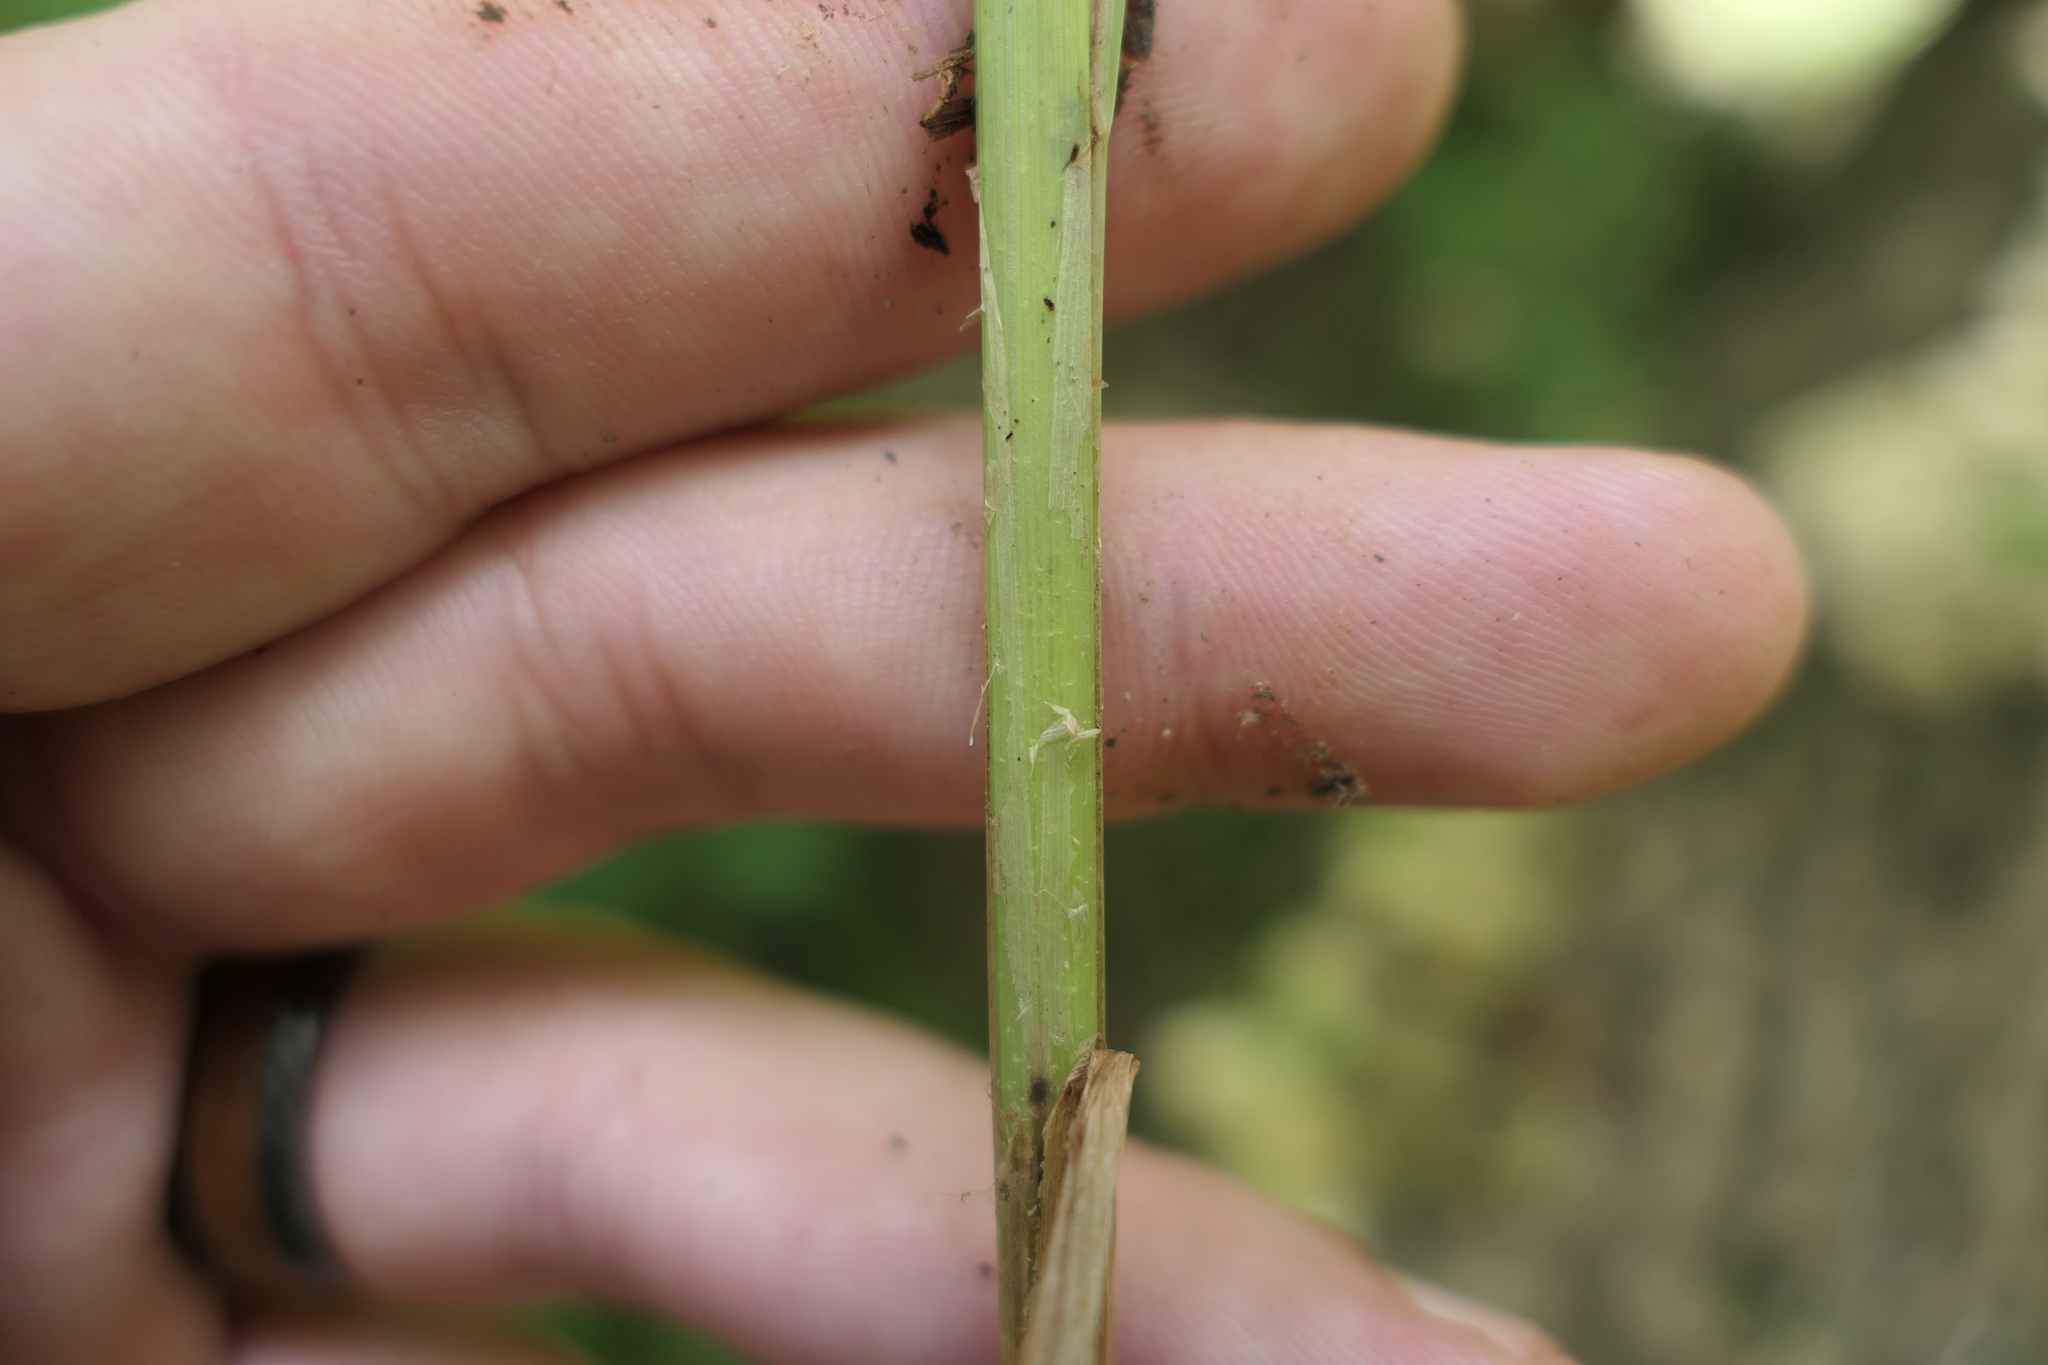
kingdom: Plantae
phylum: Tracheophyta
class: Liliopsida
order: Poales
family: Cyperaceae
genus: Carex
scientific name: Carex lupulina
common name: Hop sedge
